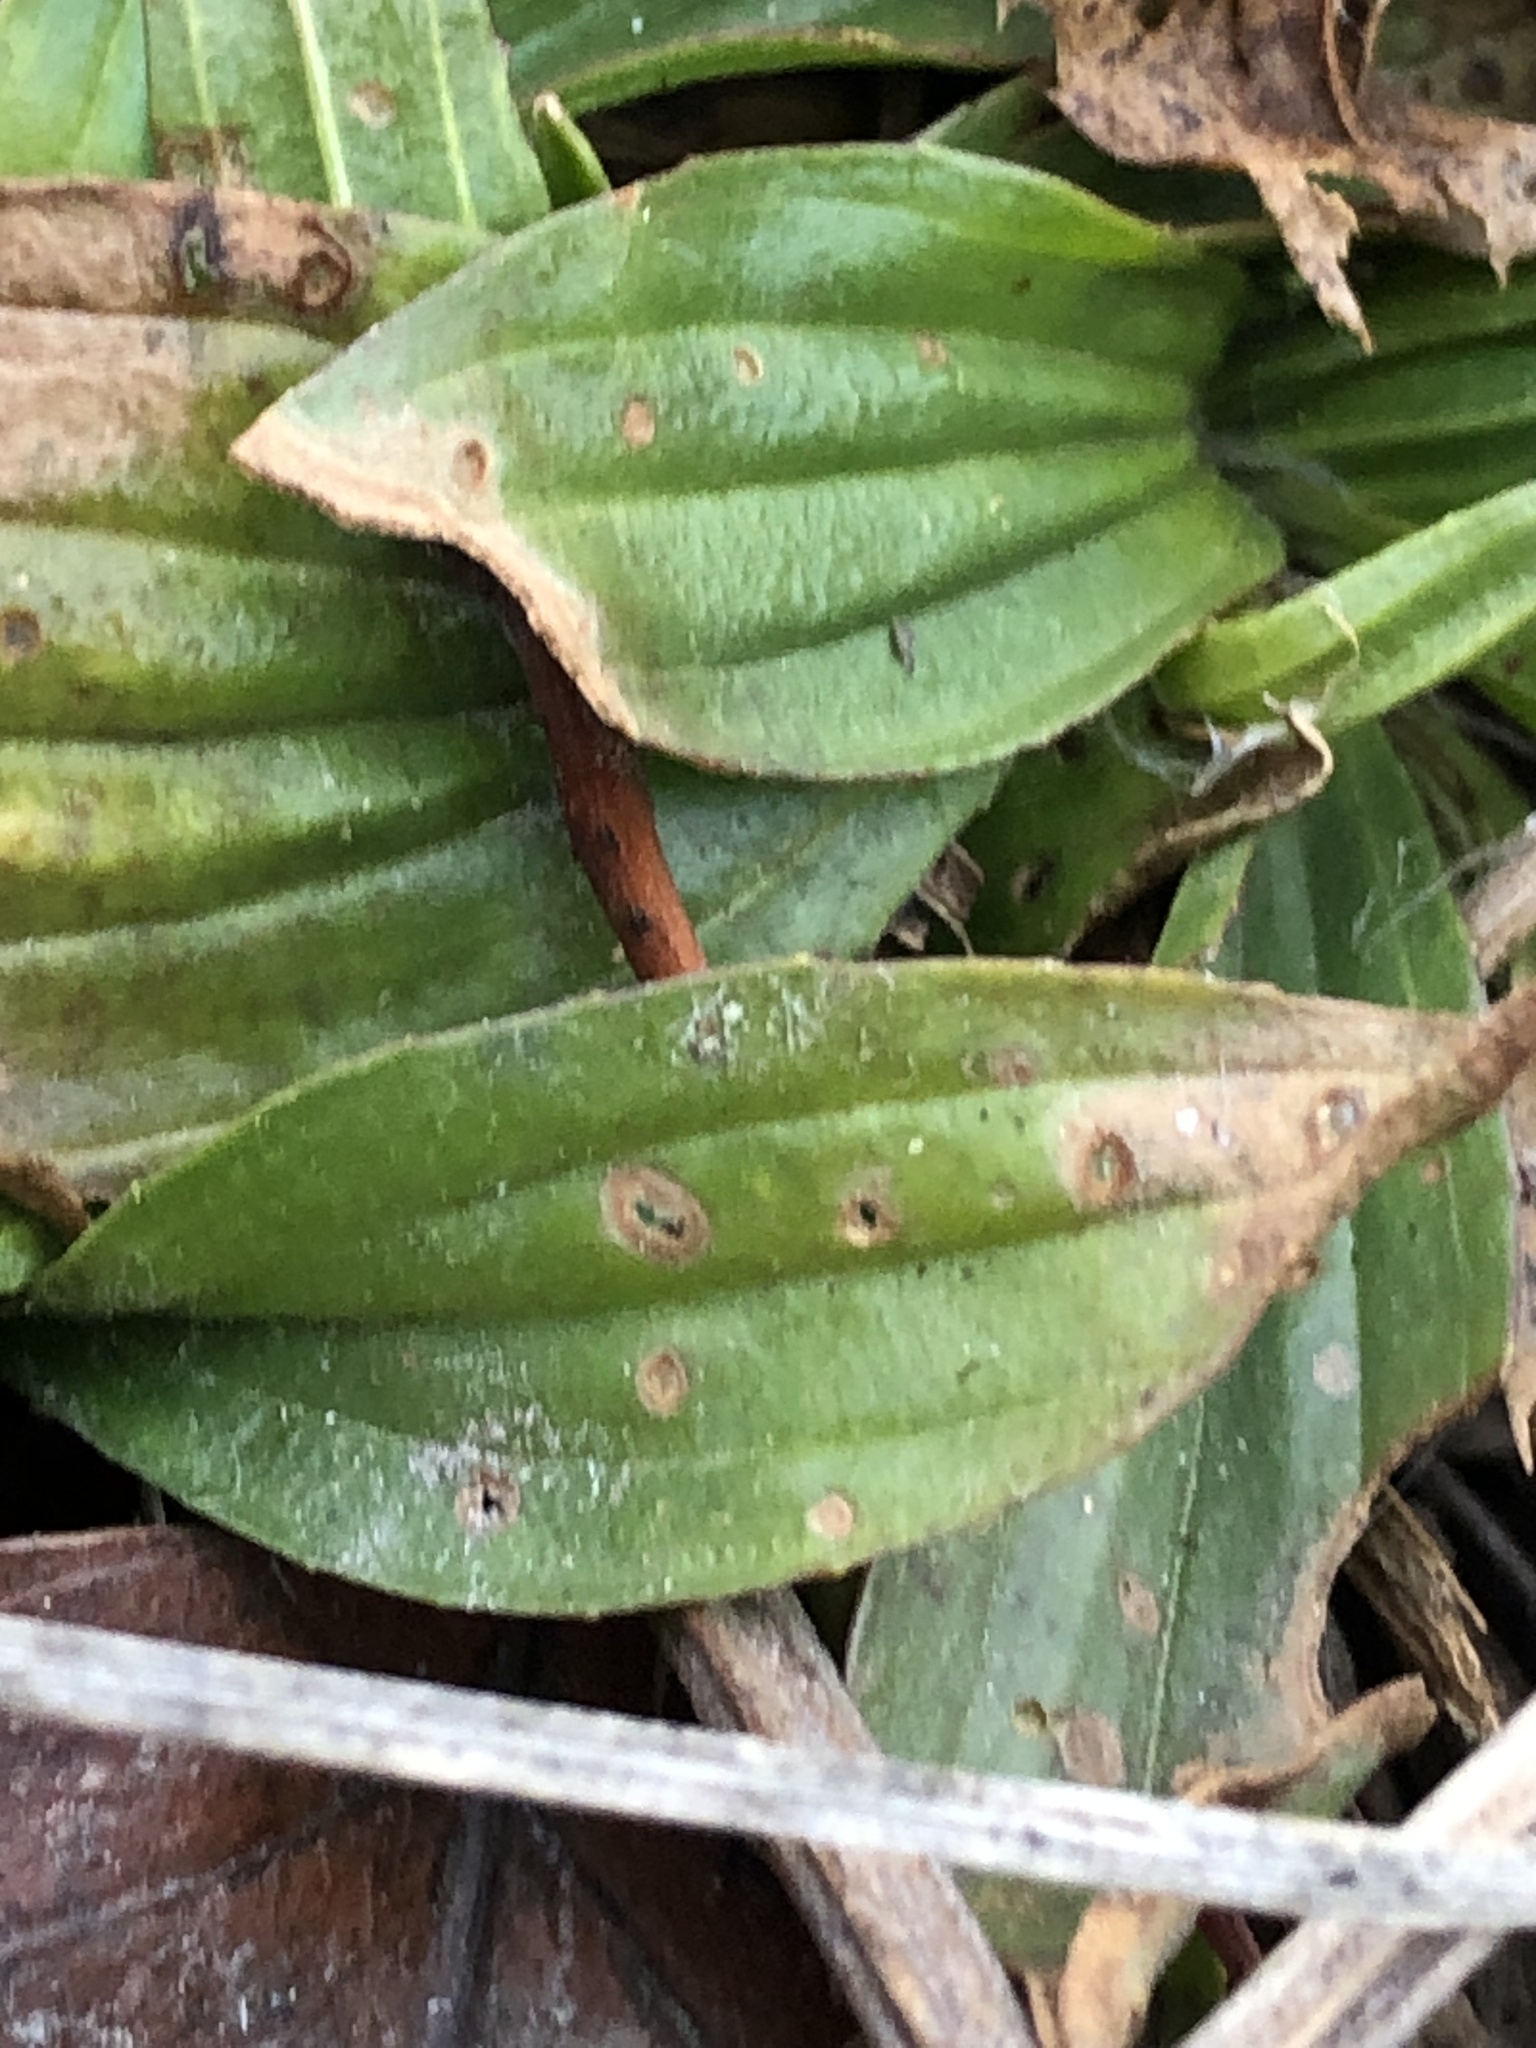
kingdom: Plantae
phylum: Tracheophyta
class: Magnoliopsida
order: Lamiales
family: Plantaginaceae
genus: Plantago
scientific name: Plantago lanceolata
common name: Ribwort plantain
